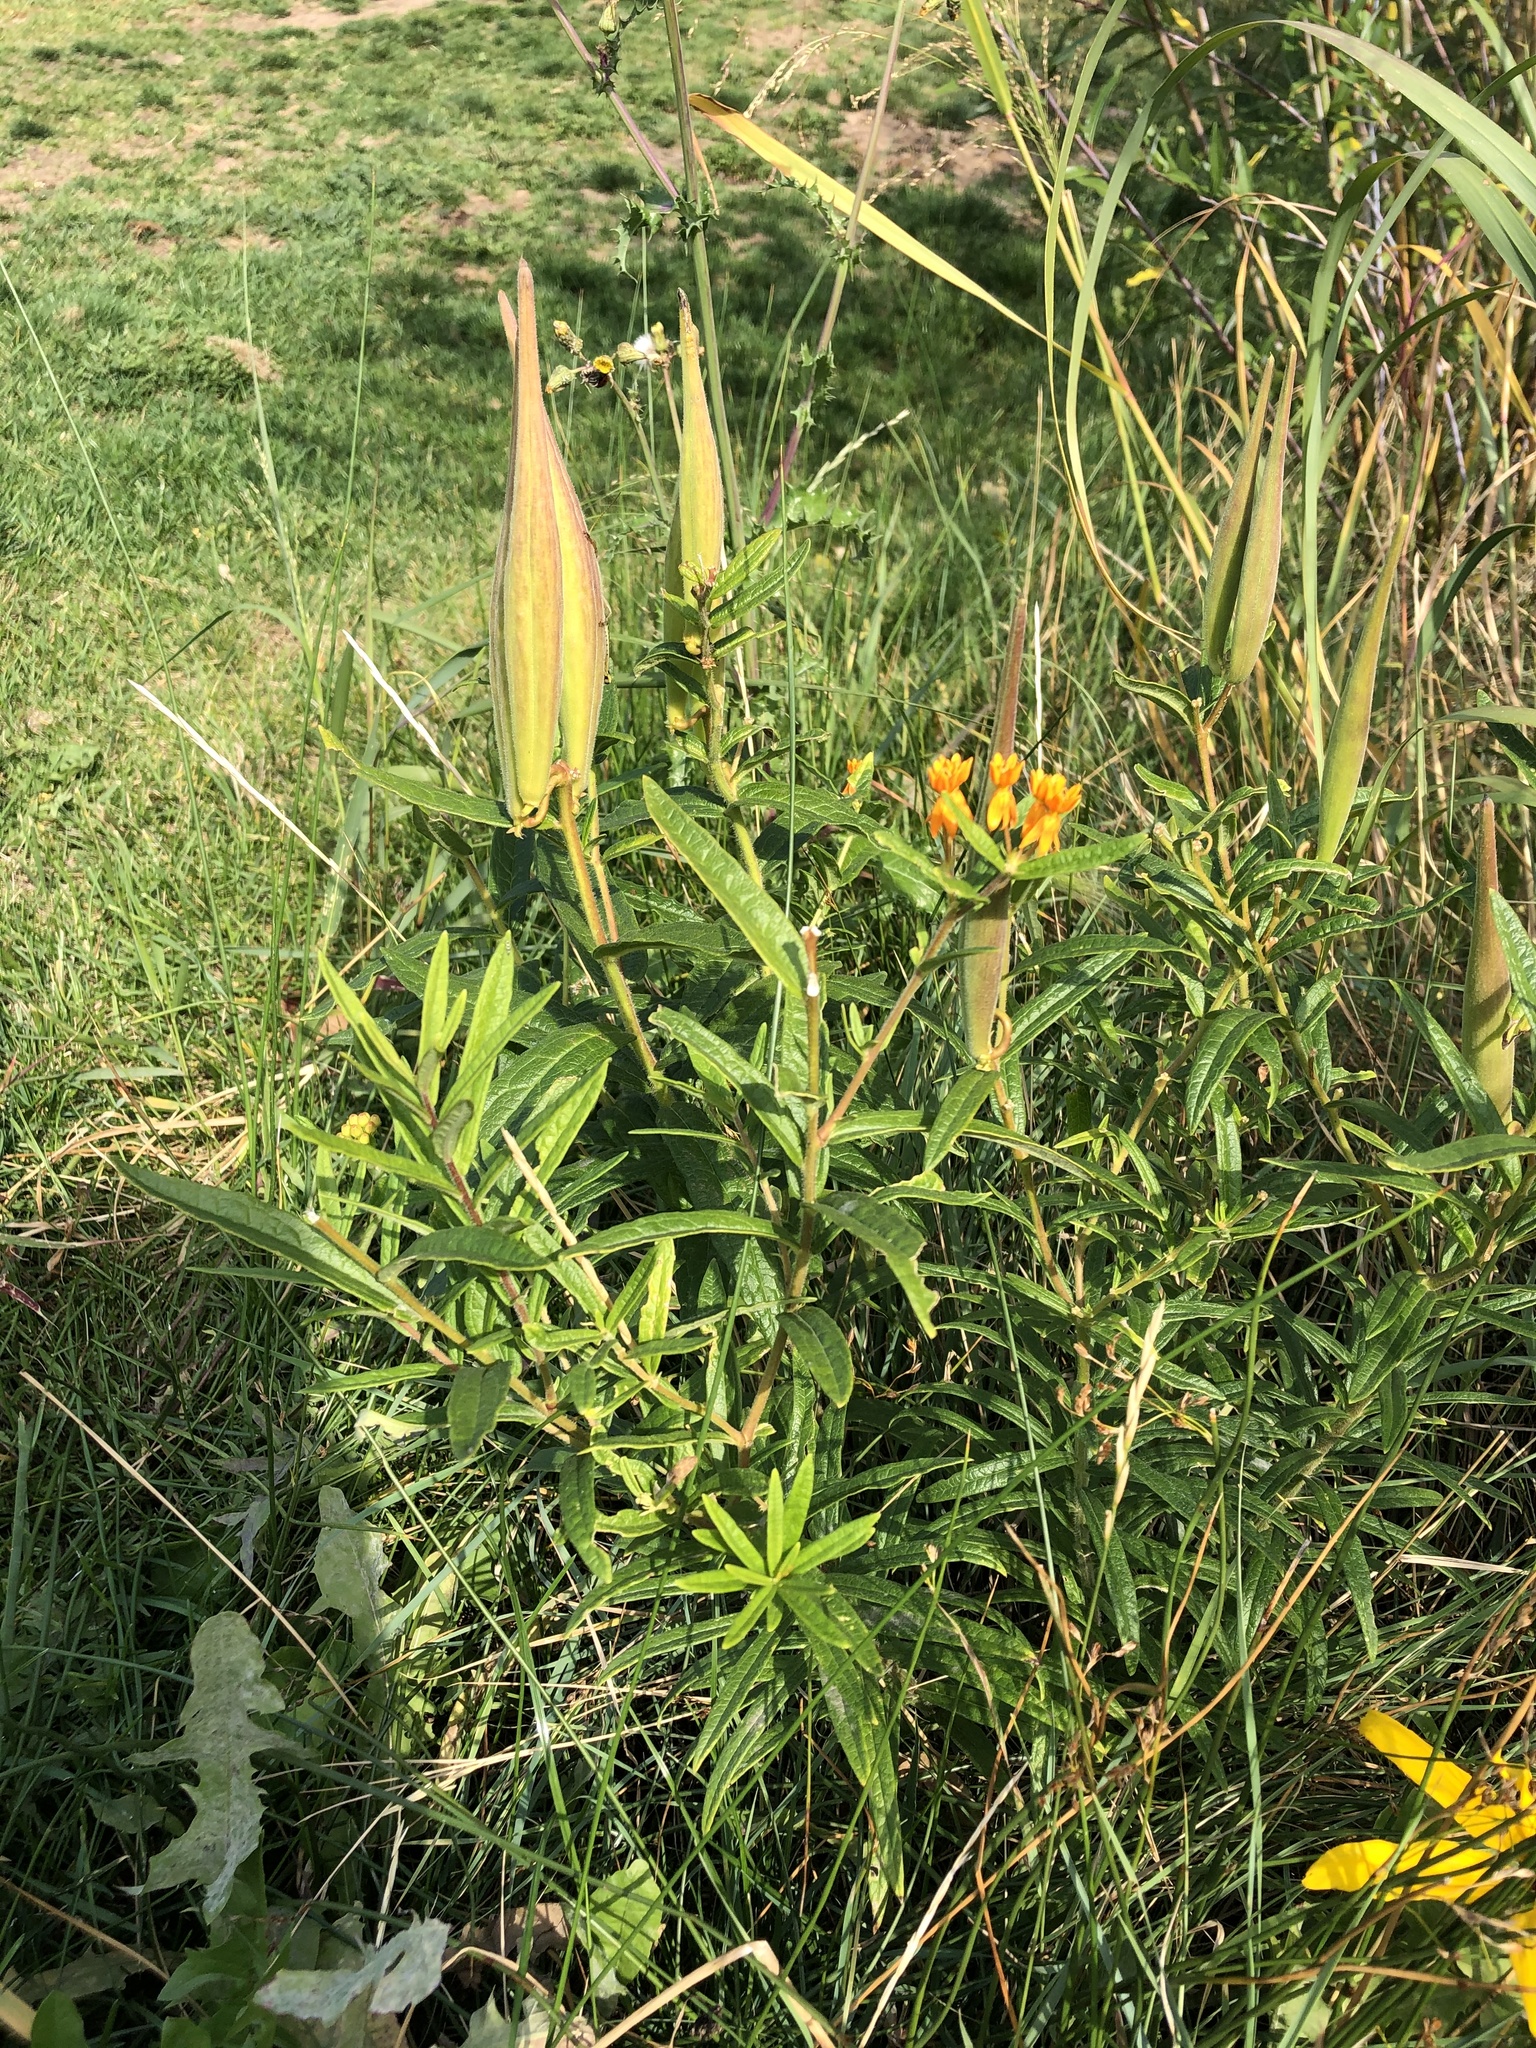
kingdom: Plantae
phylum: Tracheophyta
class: Magnoliopsida
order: Gentianales
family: Apocynaceae
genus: Asclepias
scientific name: Asclepias tuberosa
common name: Butterfly milkweed
